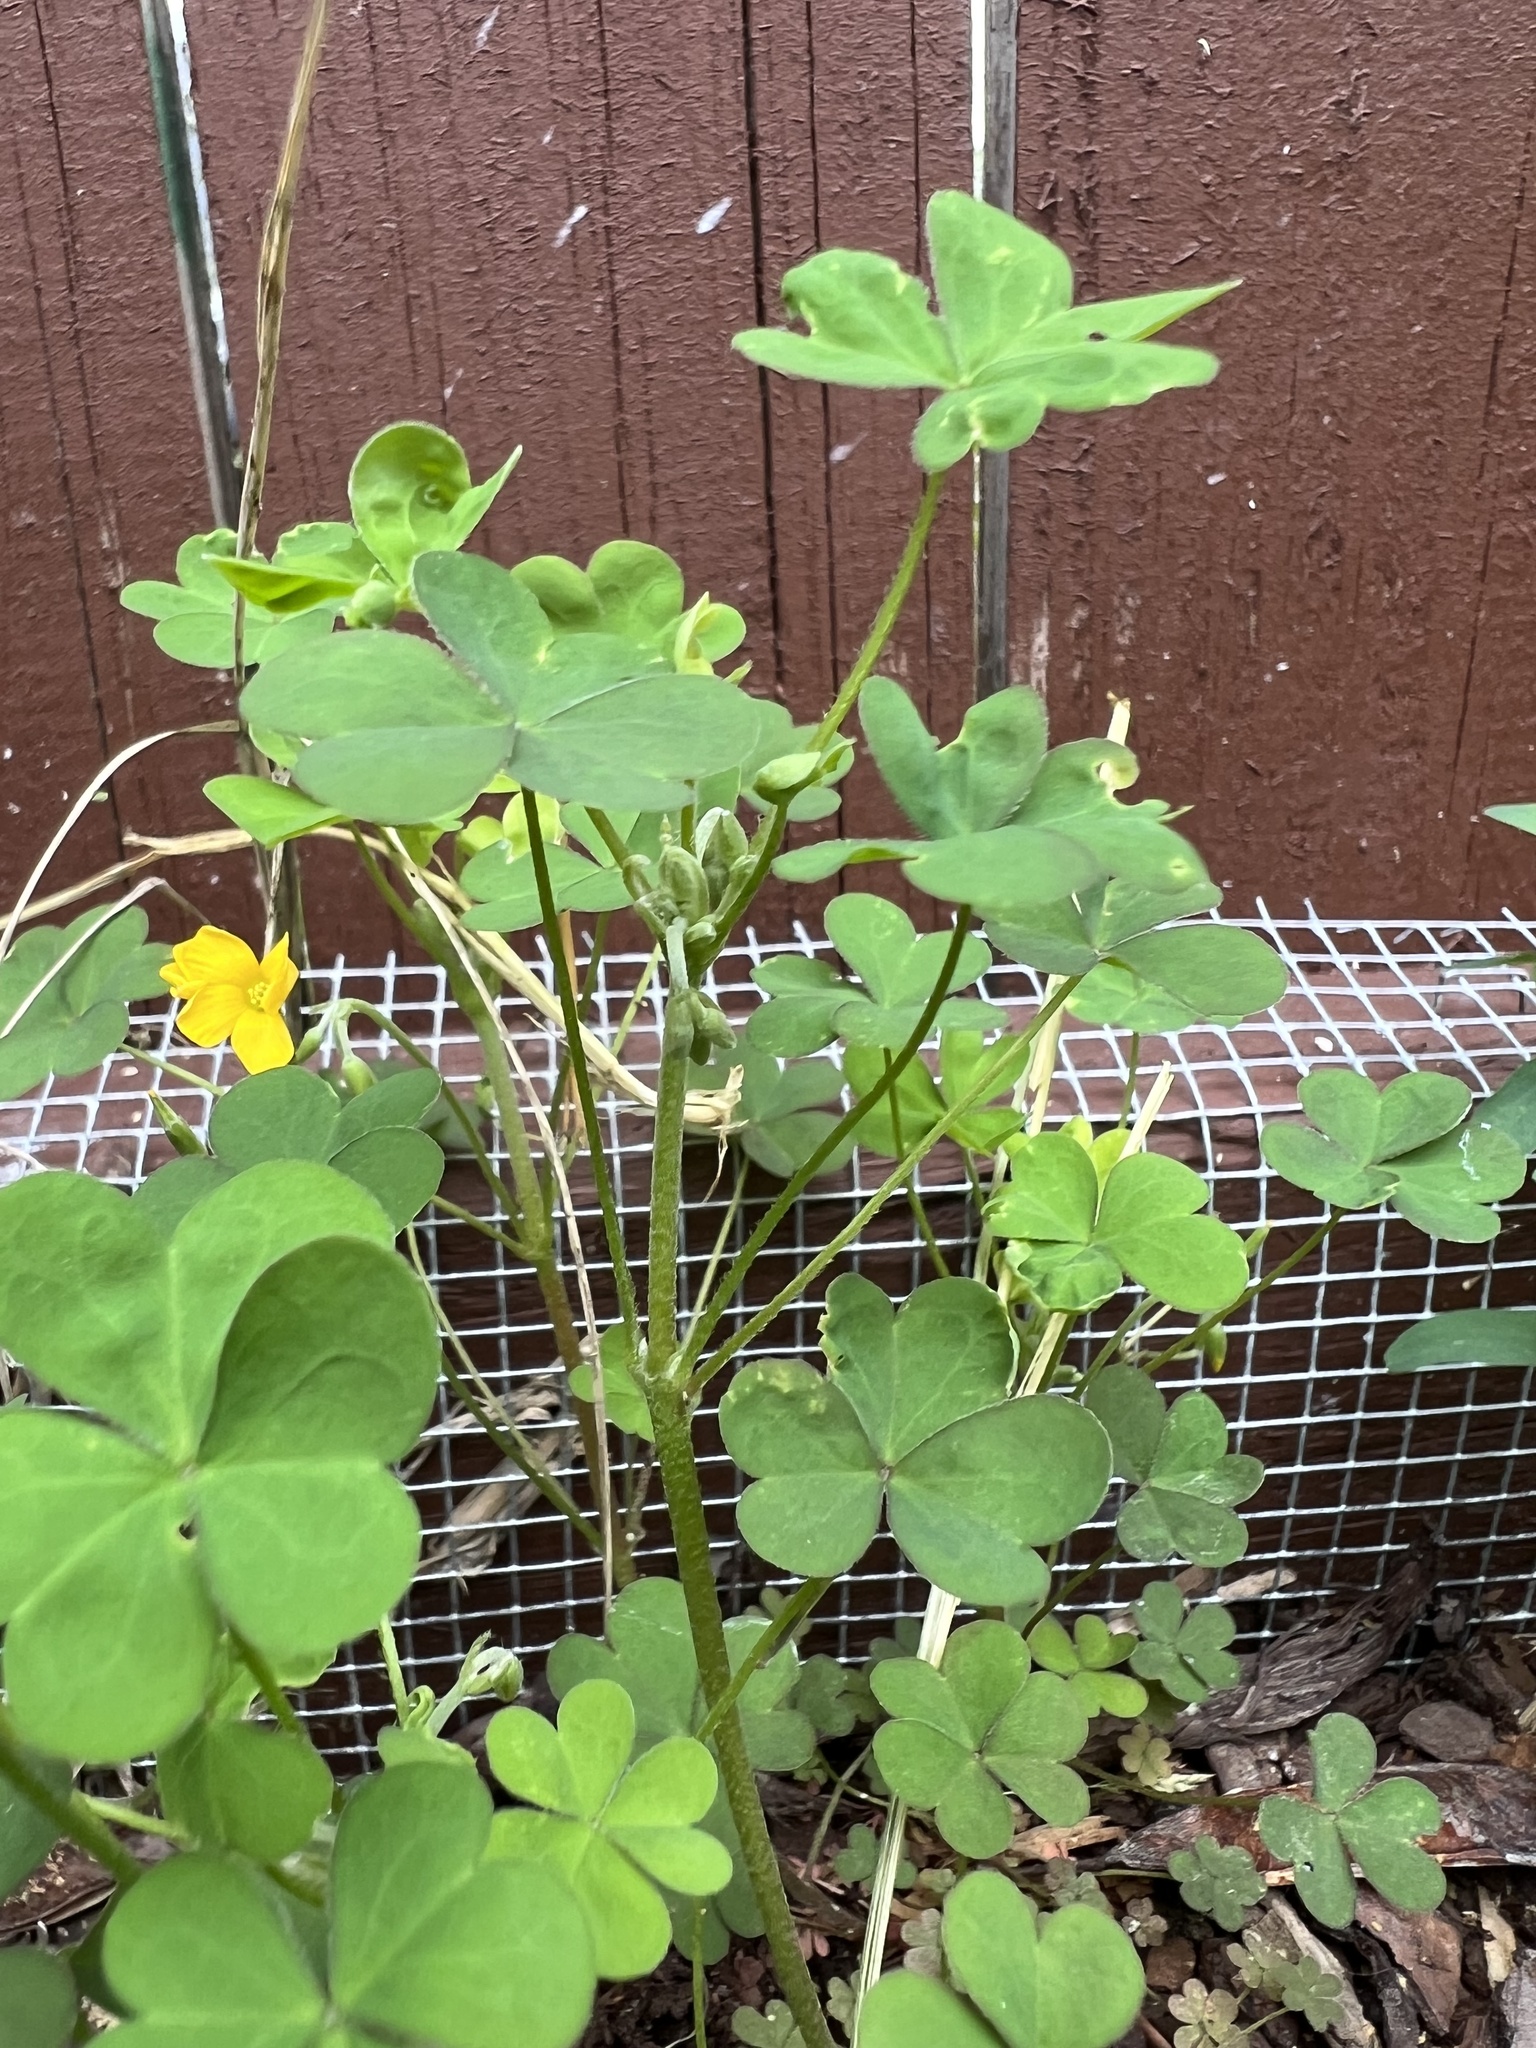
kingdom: Plantae
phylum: Tracheophyta
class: Magnoliopsida
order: Oxalidales
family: Oxalidaceae
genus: Oxalis
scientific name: Oxalis dillenii
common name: Sussex yellow-sorrel
